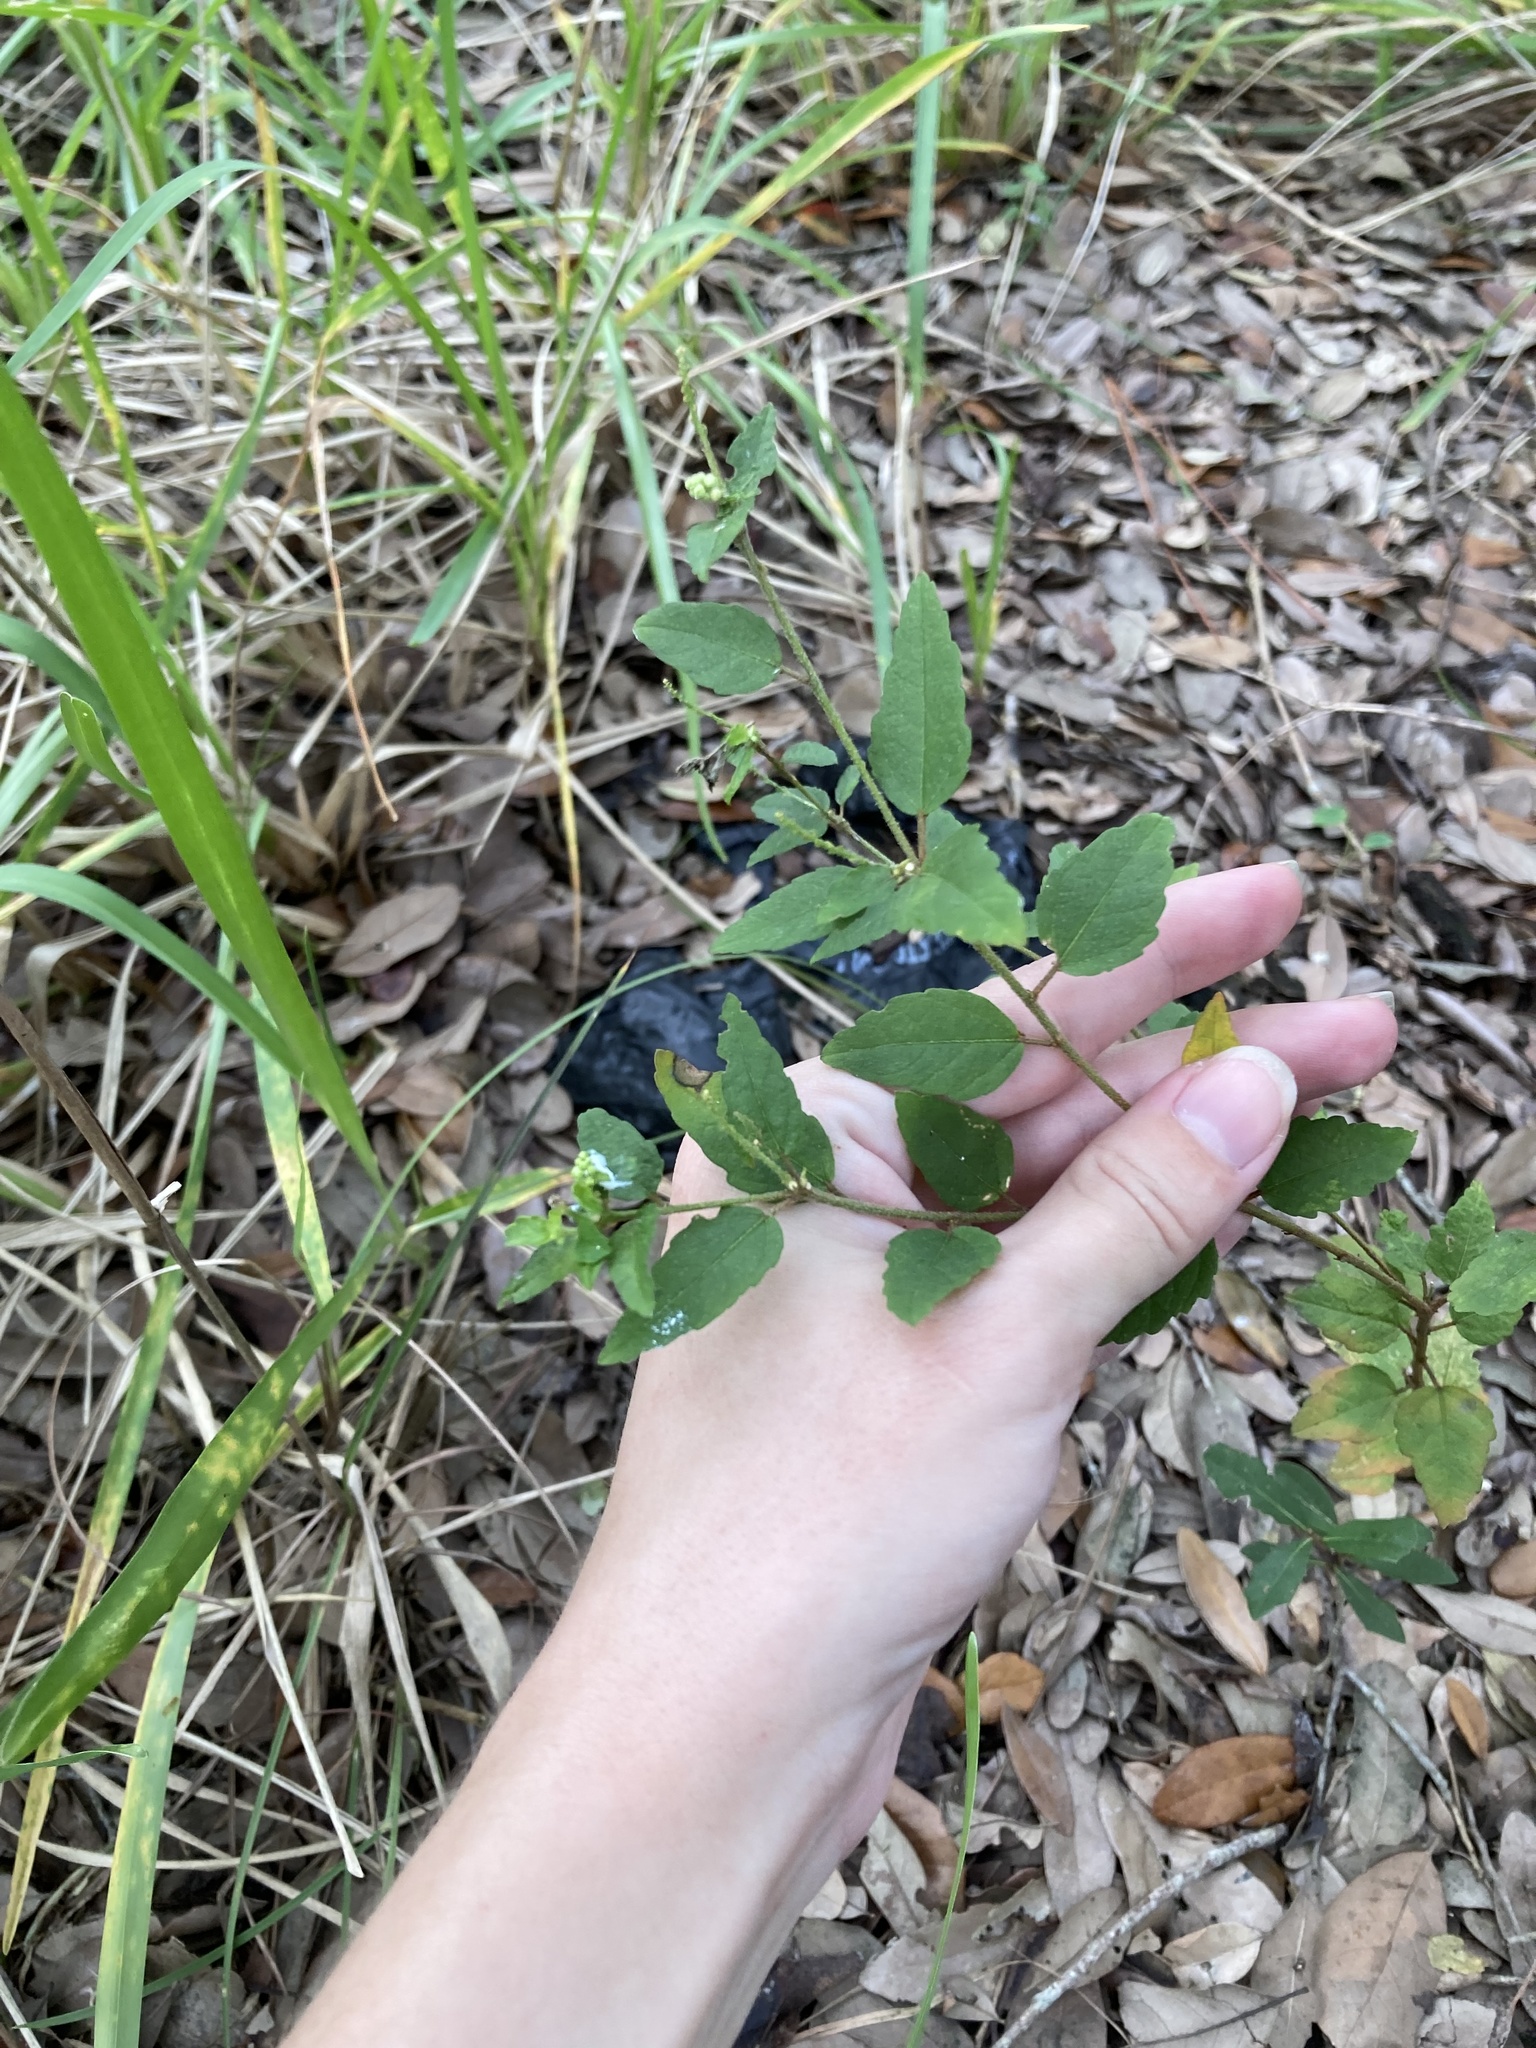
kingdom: Plantae
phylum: Tracheophyta
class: Magnoliopsida
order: Malpighiales
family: Euphorbiaceae
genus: Croton
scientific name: Croton glandulosus
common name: Tropic croton
